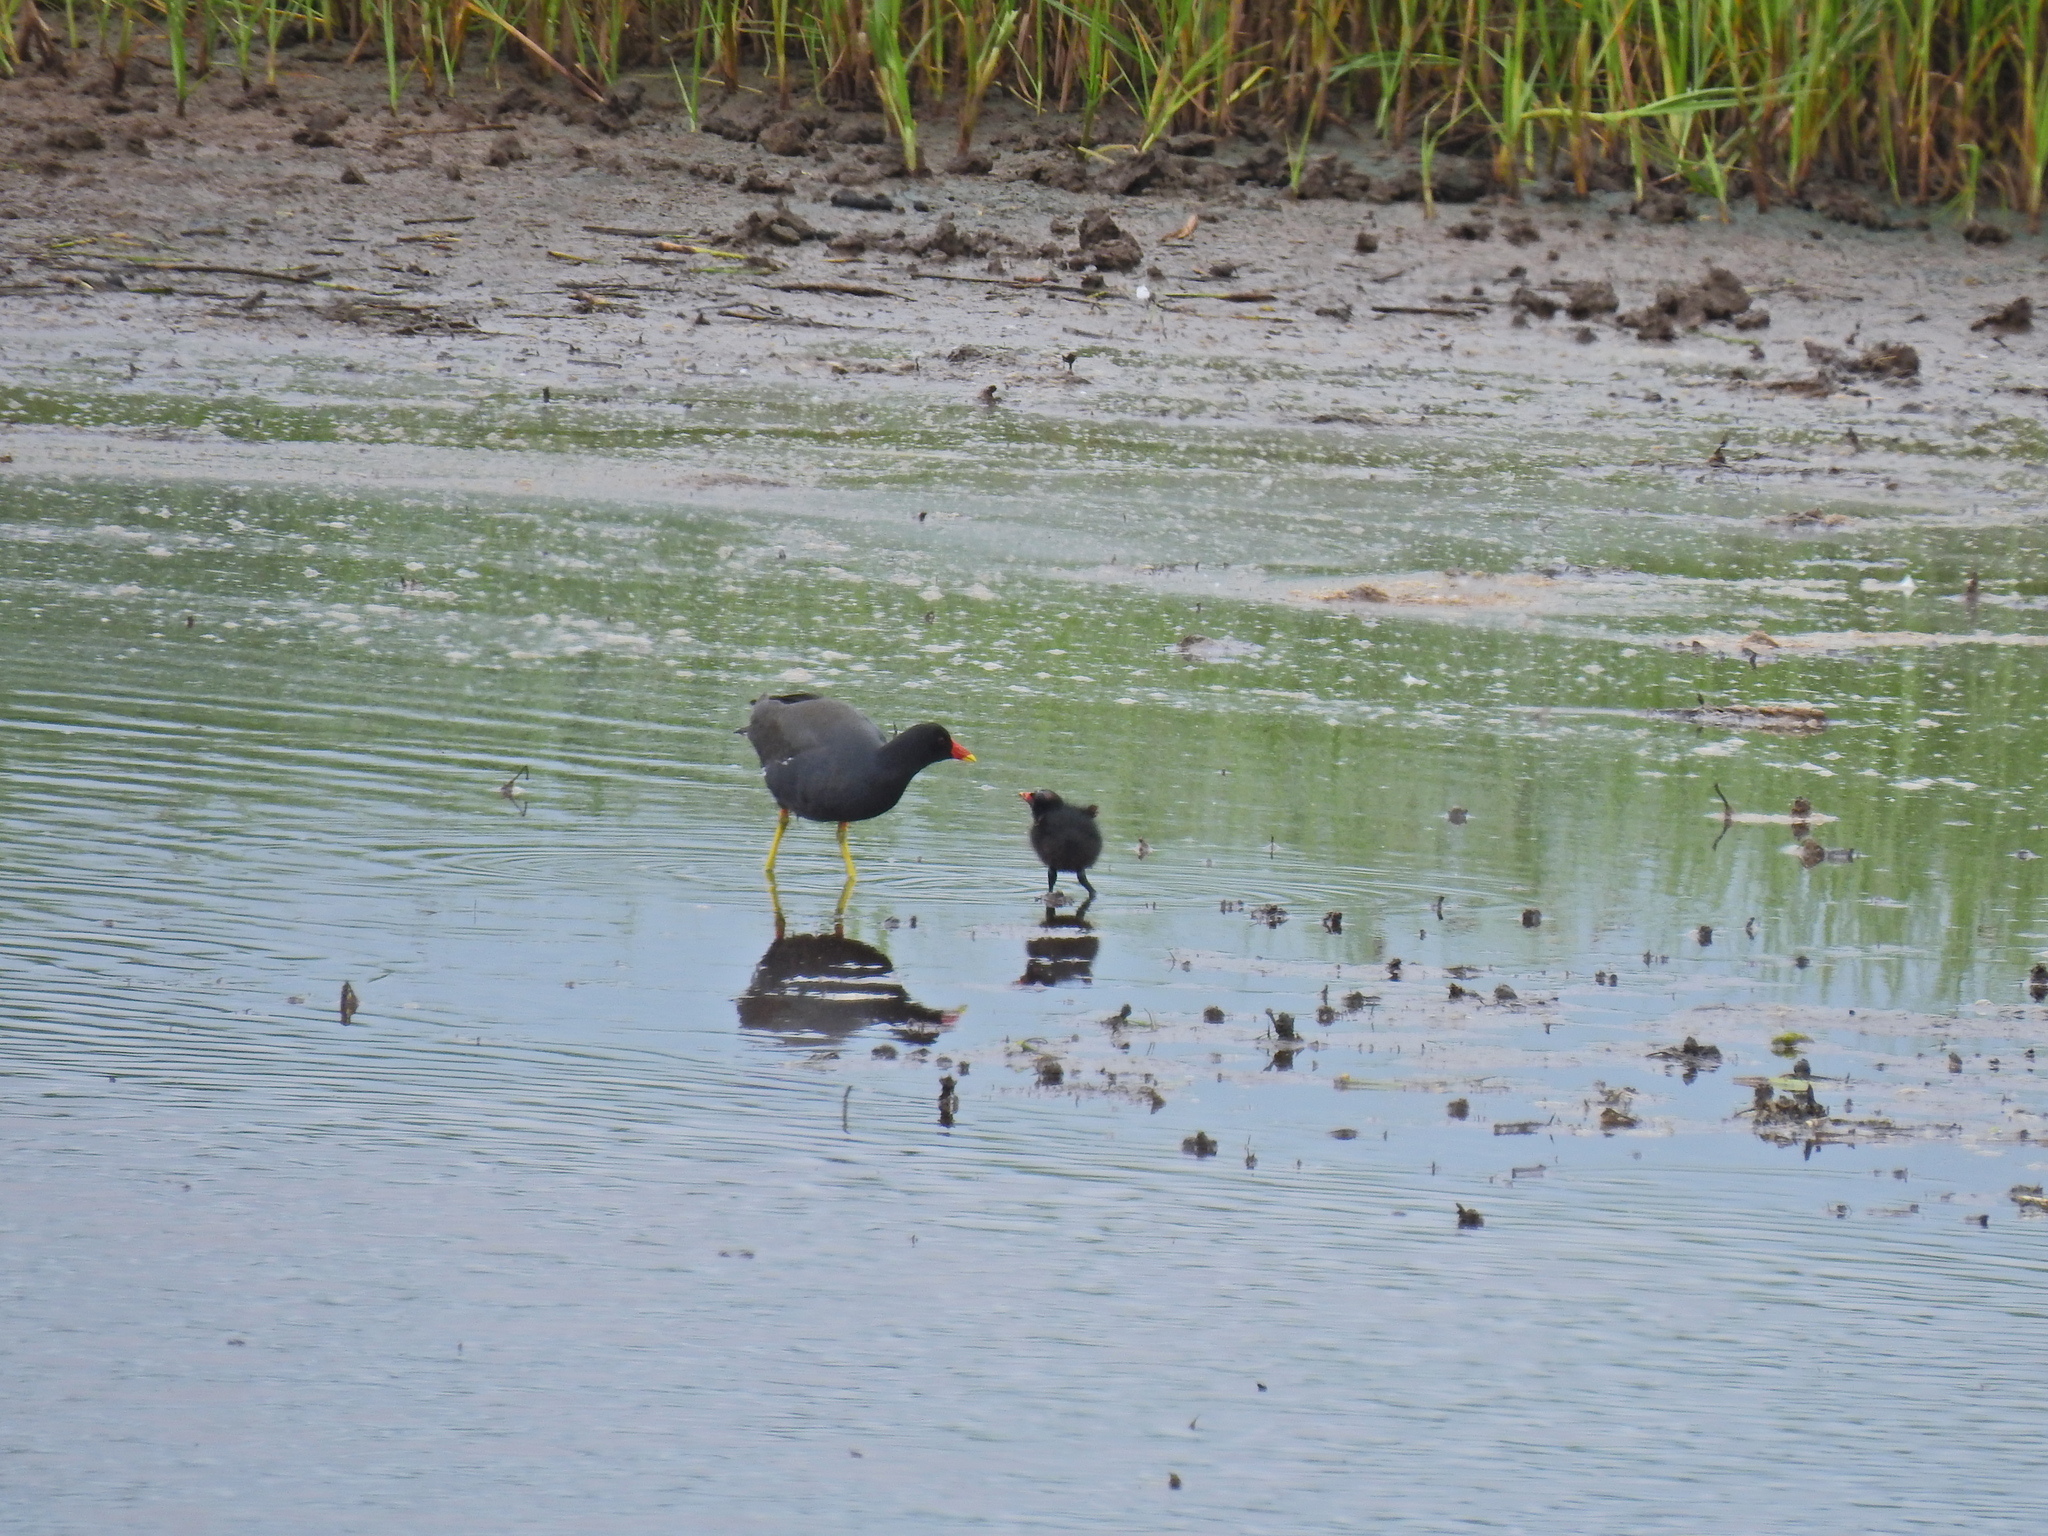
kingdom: Animalia
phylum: Chordata
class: Aves
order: Gruiformes
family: Rallidae
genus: Gallinula
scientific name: Gallinula chloropus
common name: Common moorhen
